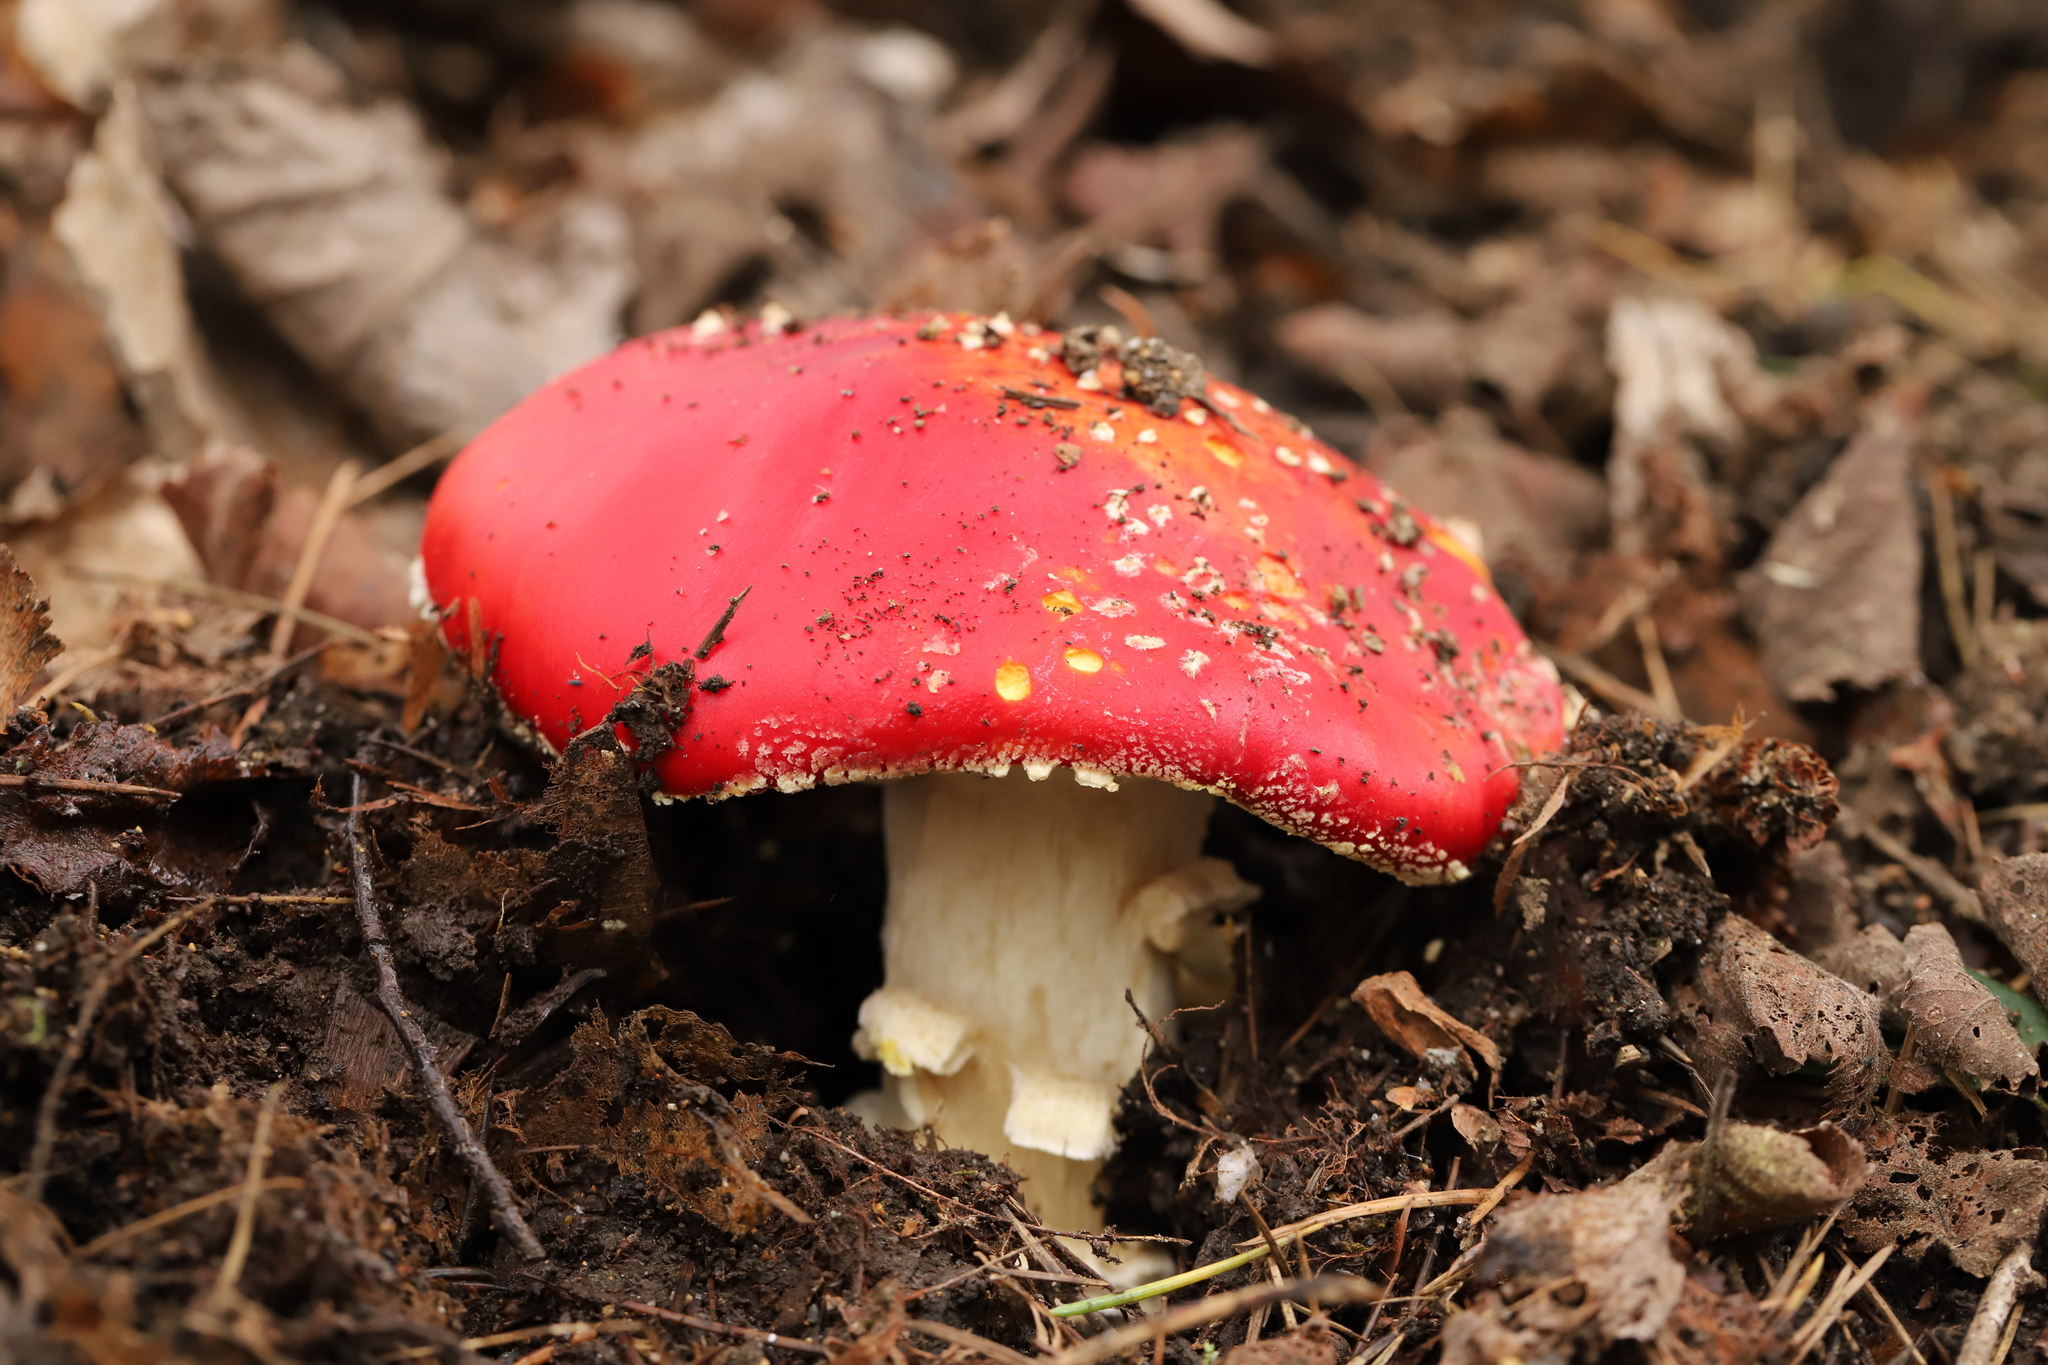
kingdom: Fungi
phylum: Basidiomycota
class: Agaricomycetes
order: Agaricales
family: Amanitaceae
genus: Amanita
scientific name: Amanita muscaria
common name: Fly agaric
